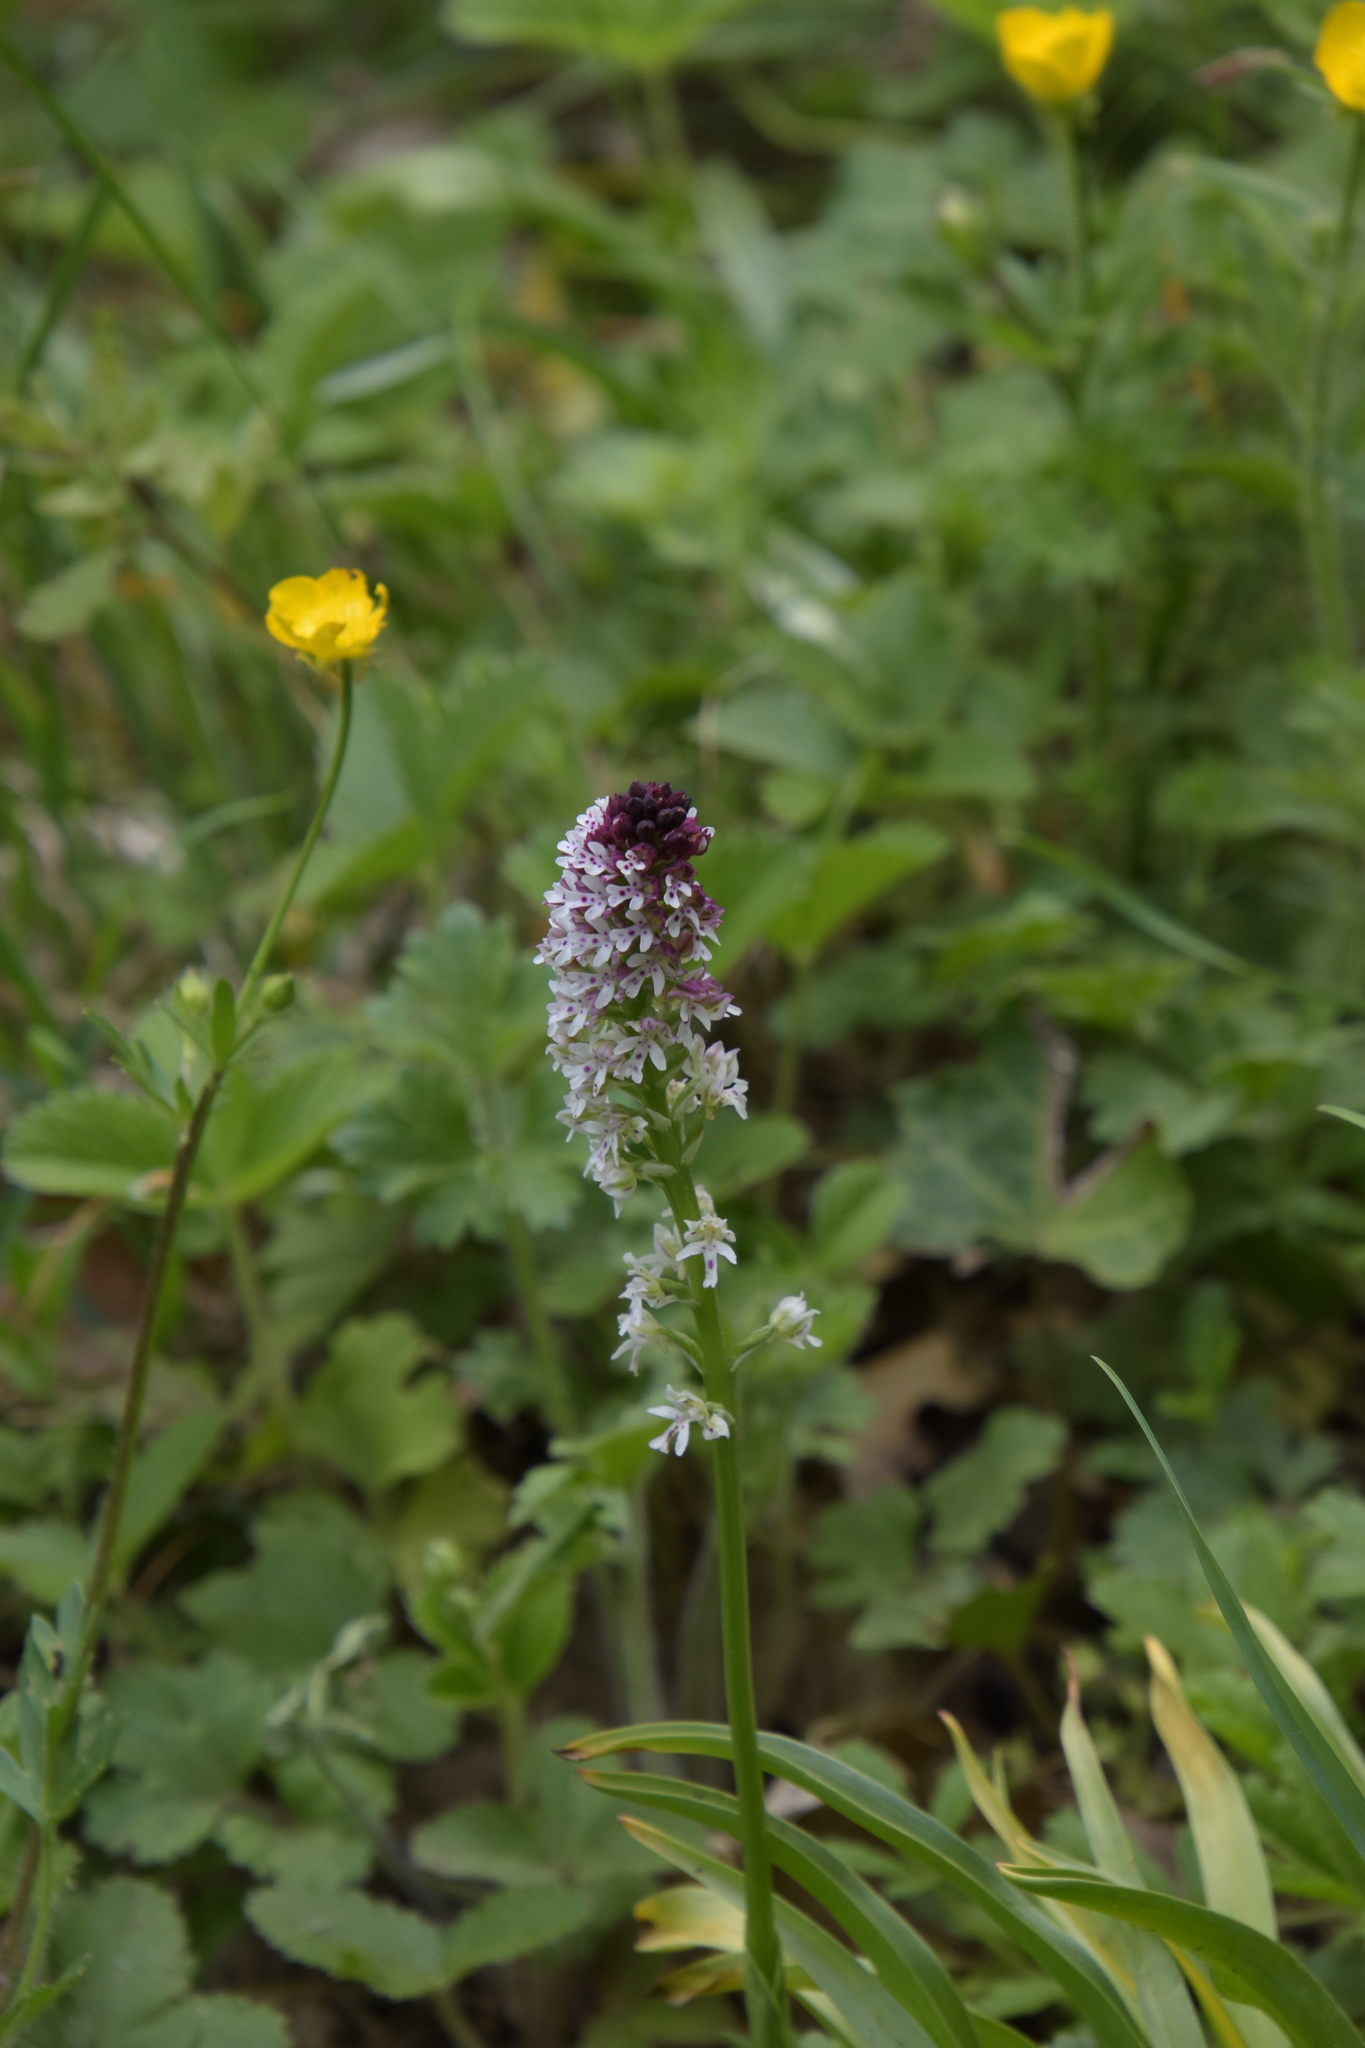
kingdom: Plantae
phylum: Tracheophyta
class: Liliopsida
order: Asparagales
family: Orchidaceae
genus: Neotinea
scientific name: Neotinea ustulata
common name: Burnt orchid
